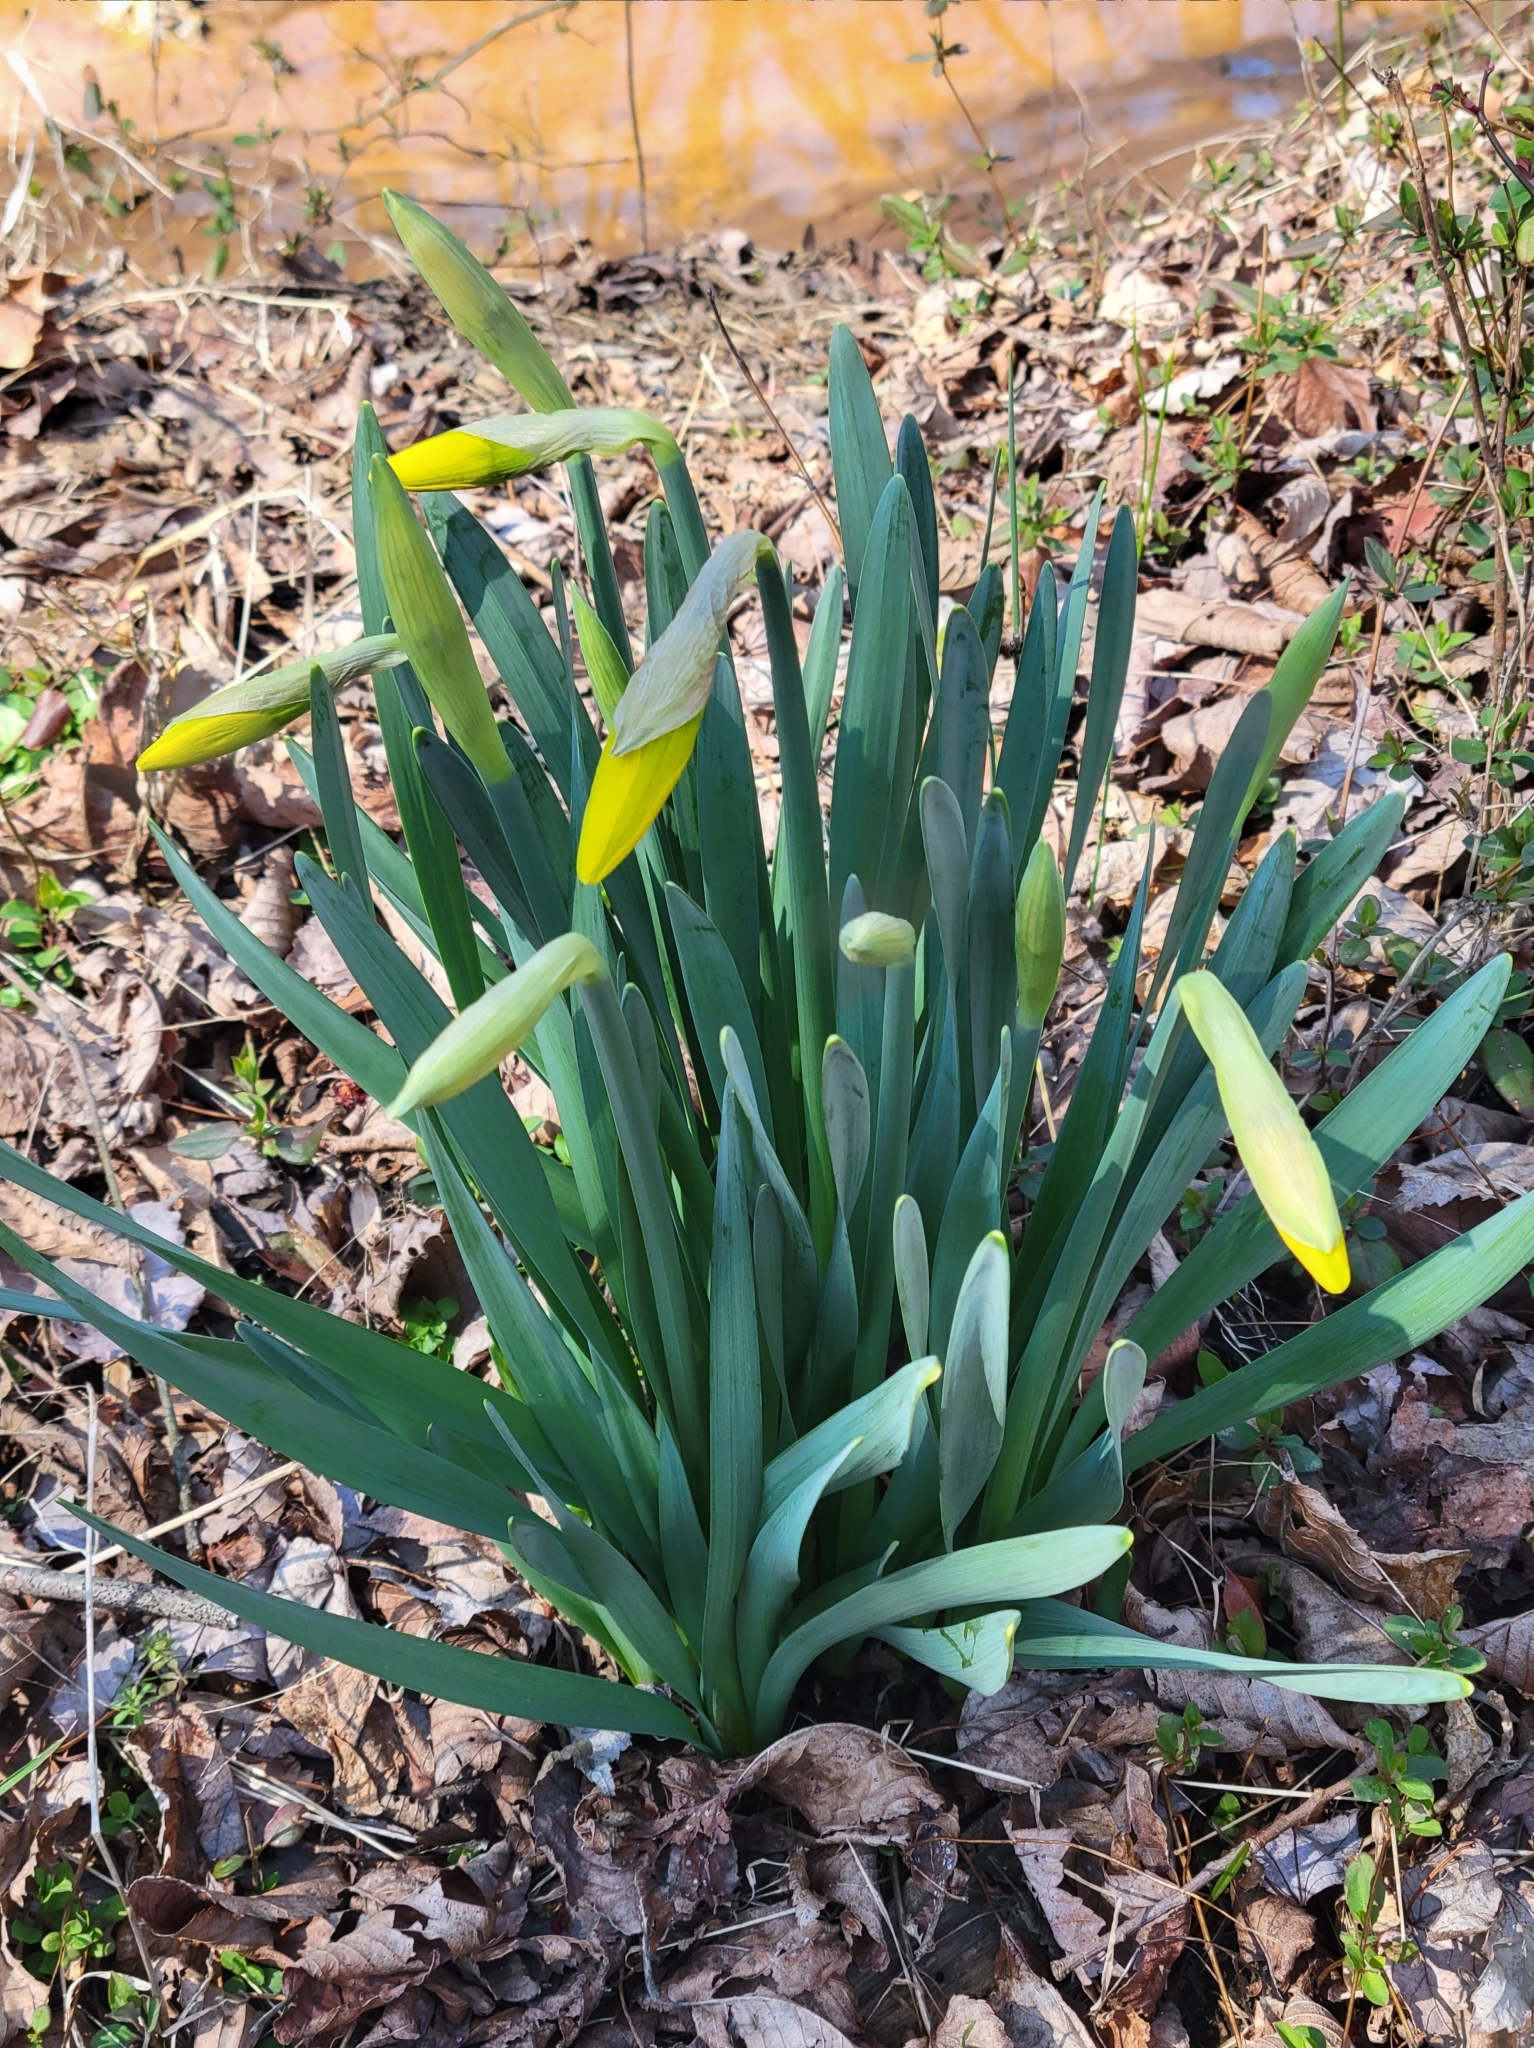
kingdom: Plantae
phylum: Tracheophyta
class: Liliopsida
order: Asparagales
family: Amaryllidaceae
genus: Narcissus
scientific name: Narcissus pseudonarcissus
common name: Daffodil
